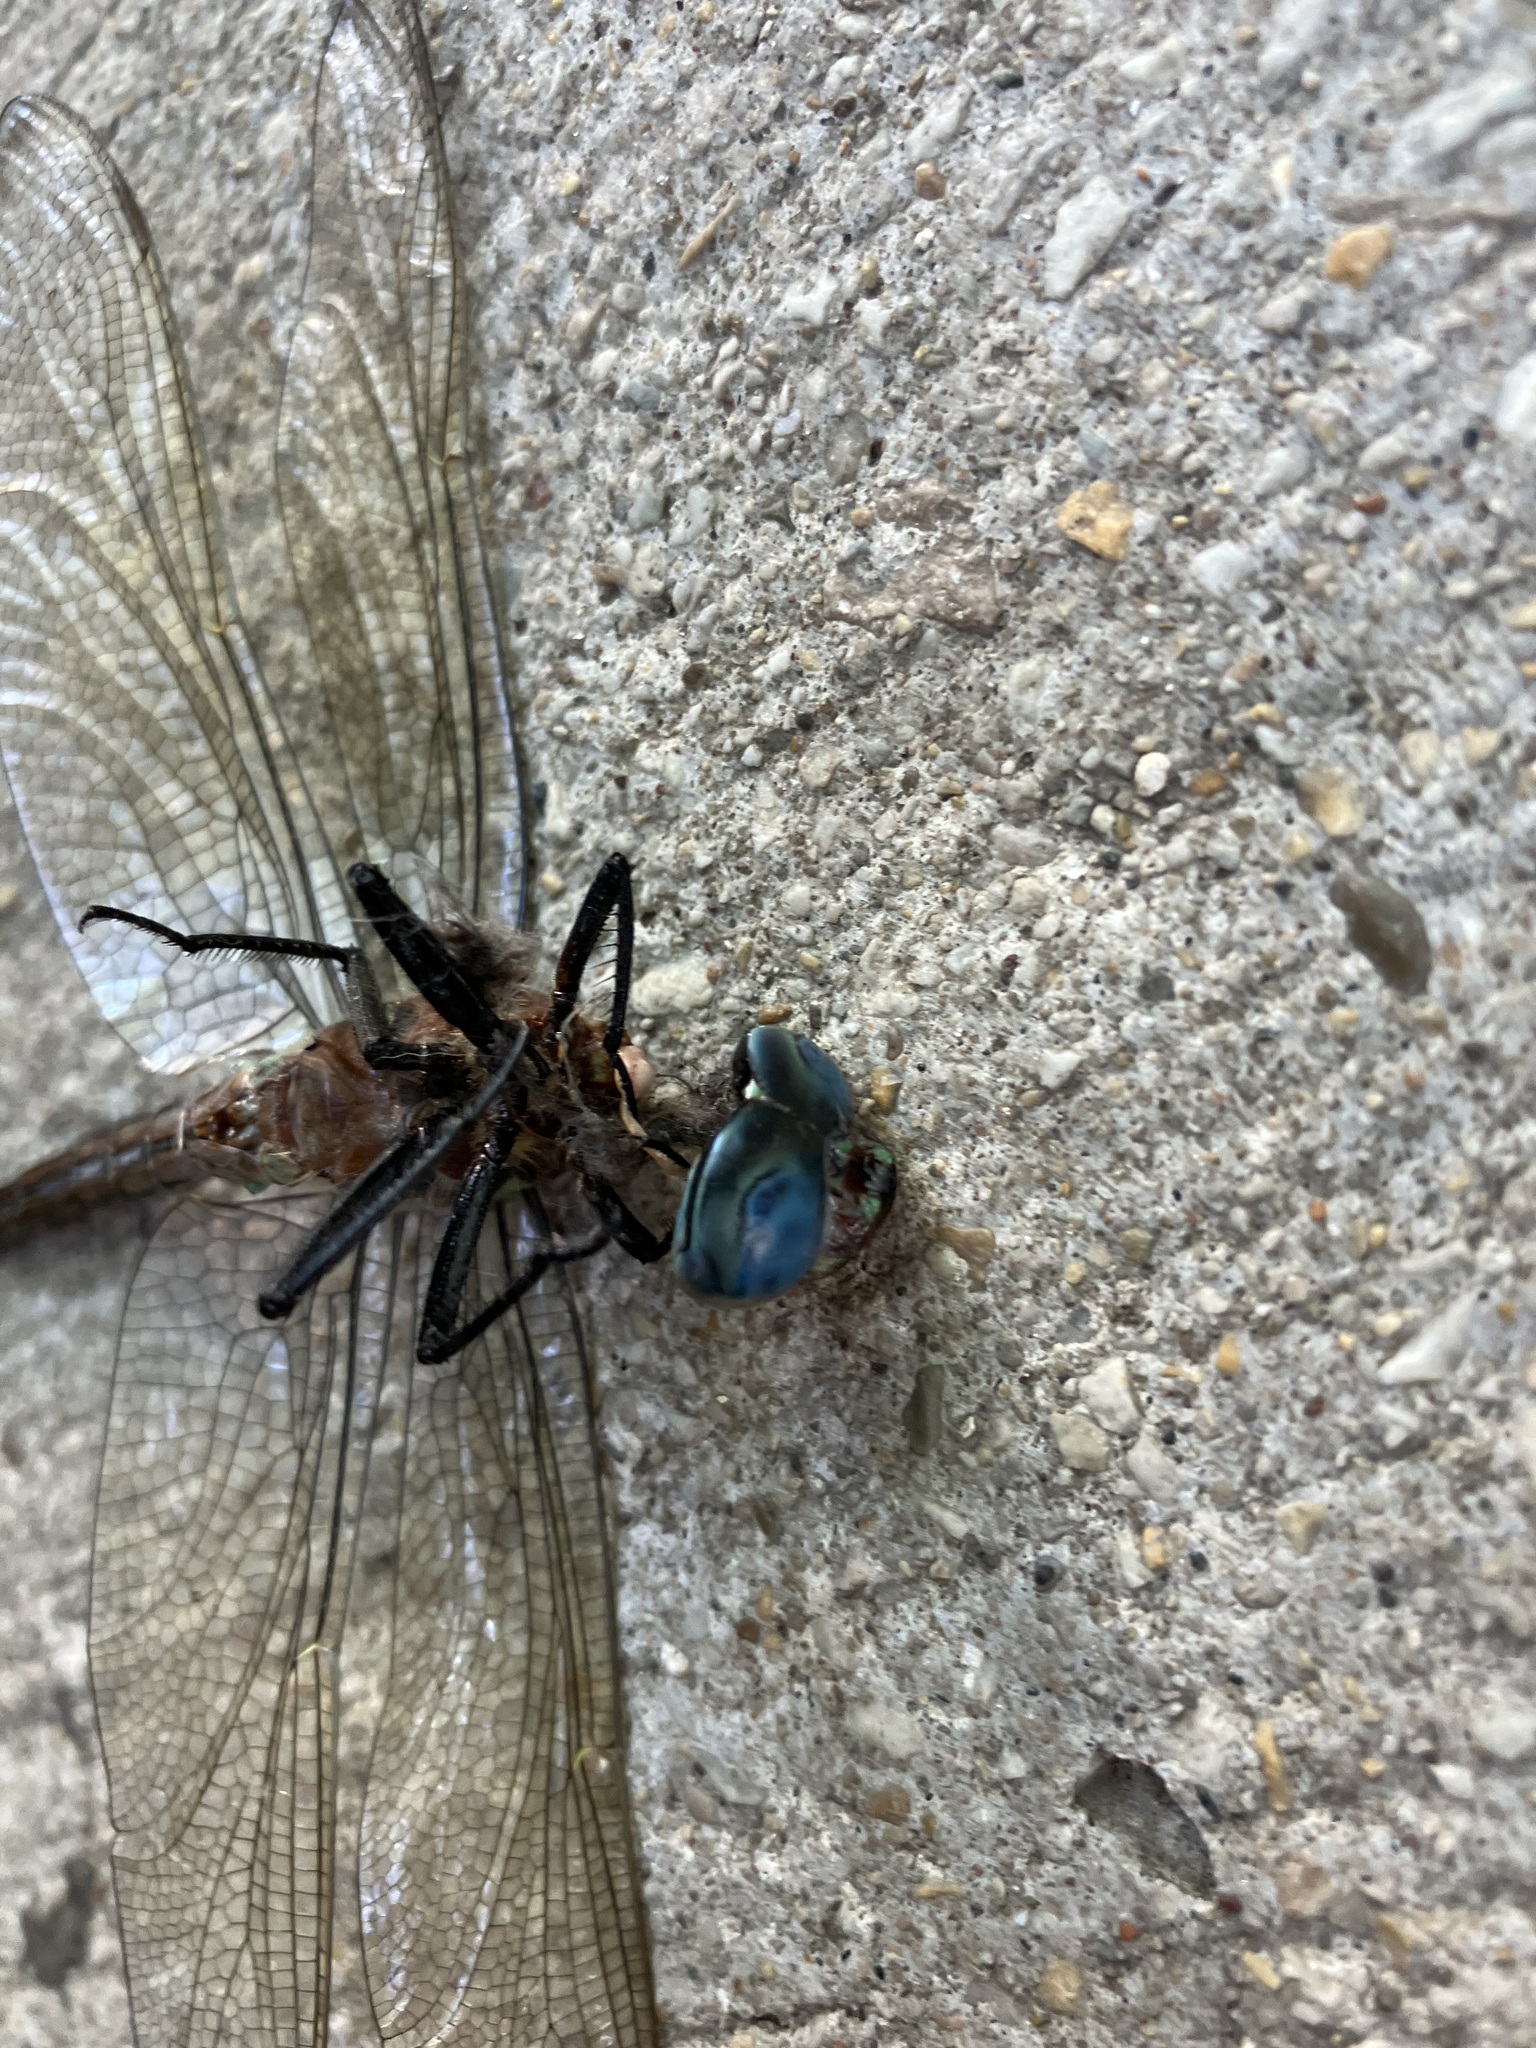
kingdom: Animalia
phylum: Arthropoda
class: Insecta
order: Odonata
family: Aeshnidae
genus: Epiaeschna
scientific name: Epiaeschna heros
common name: Swamp darner
